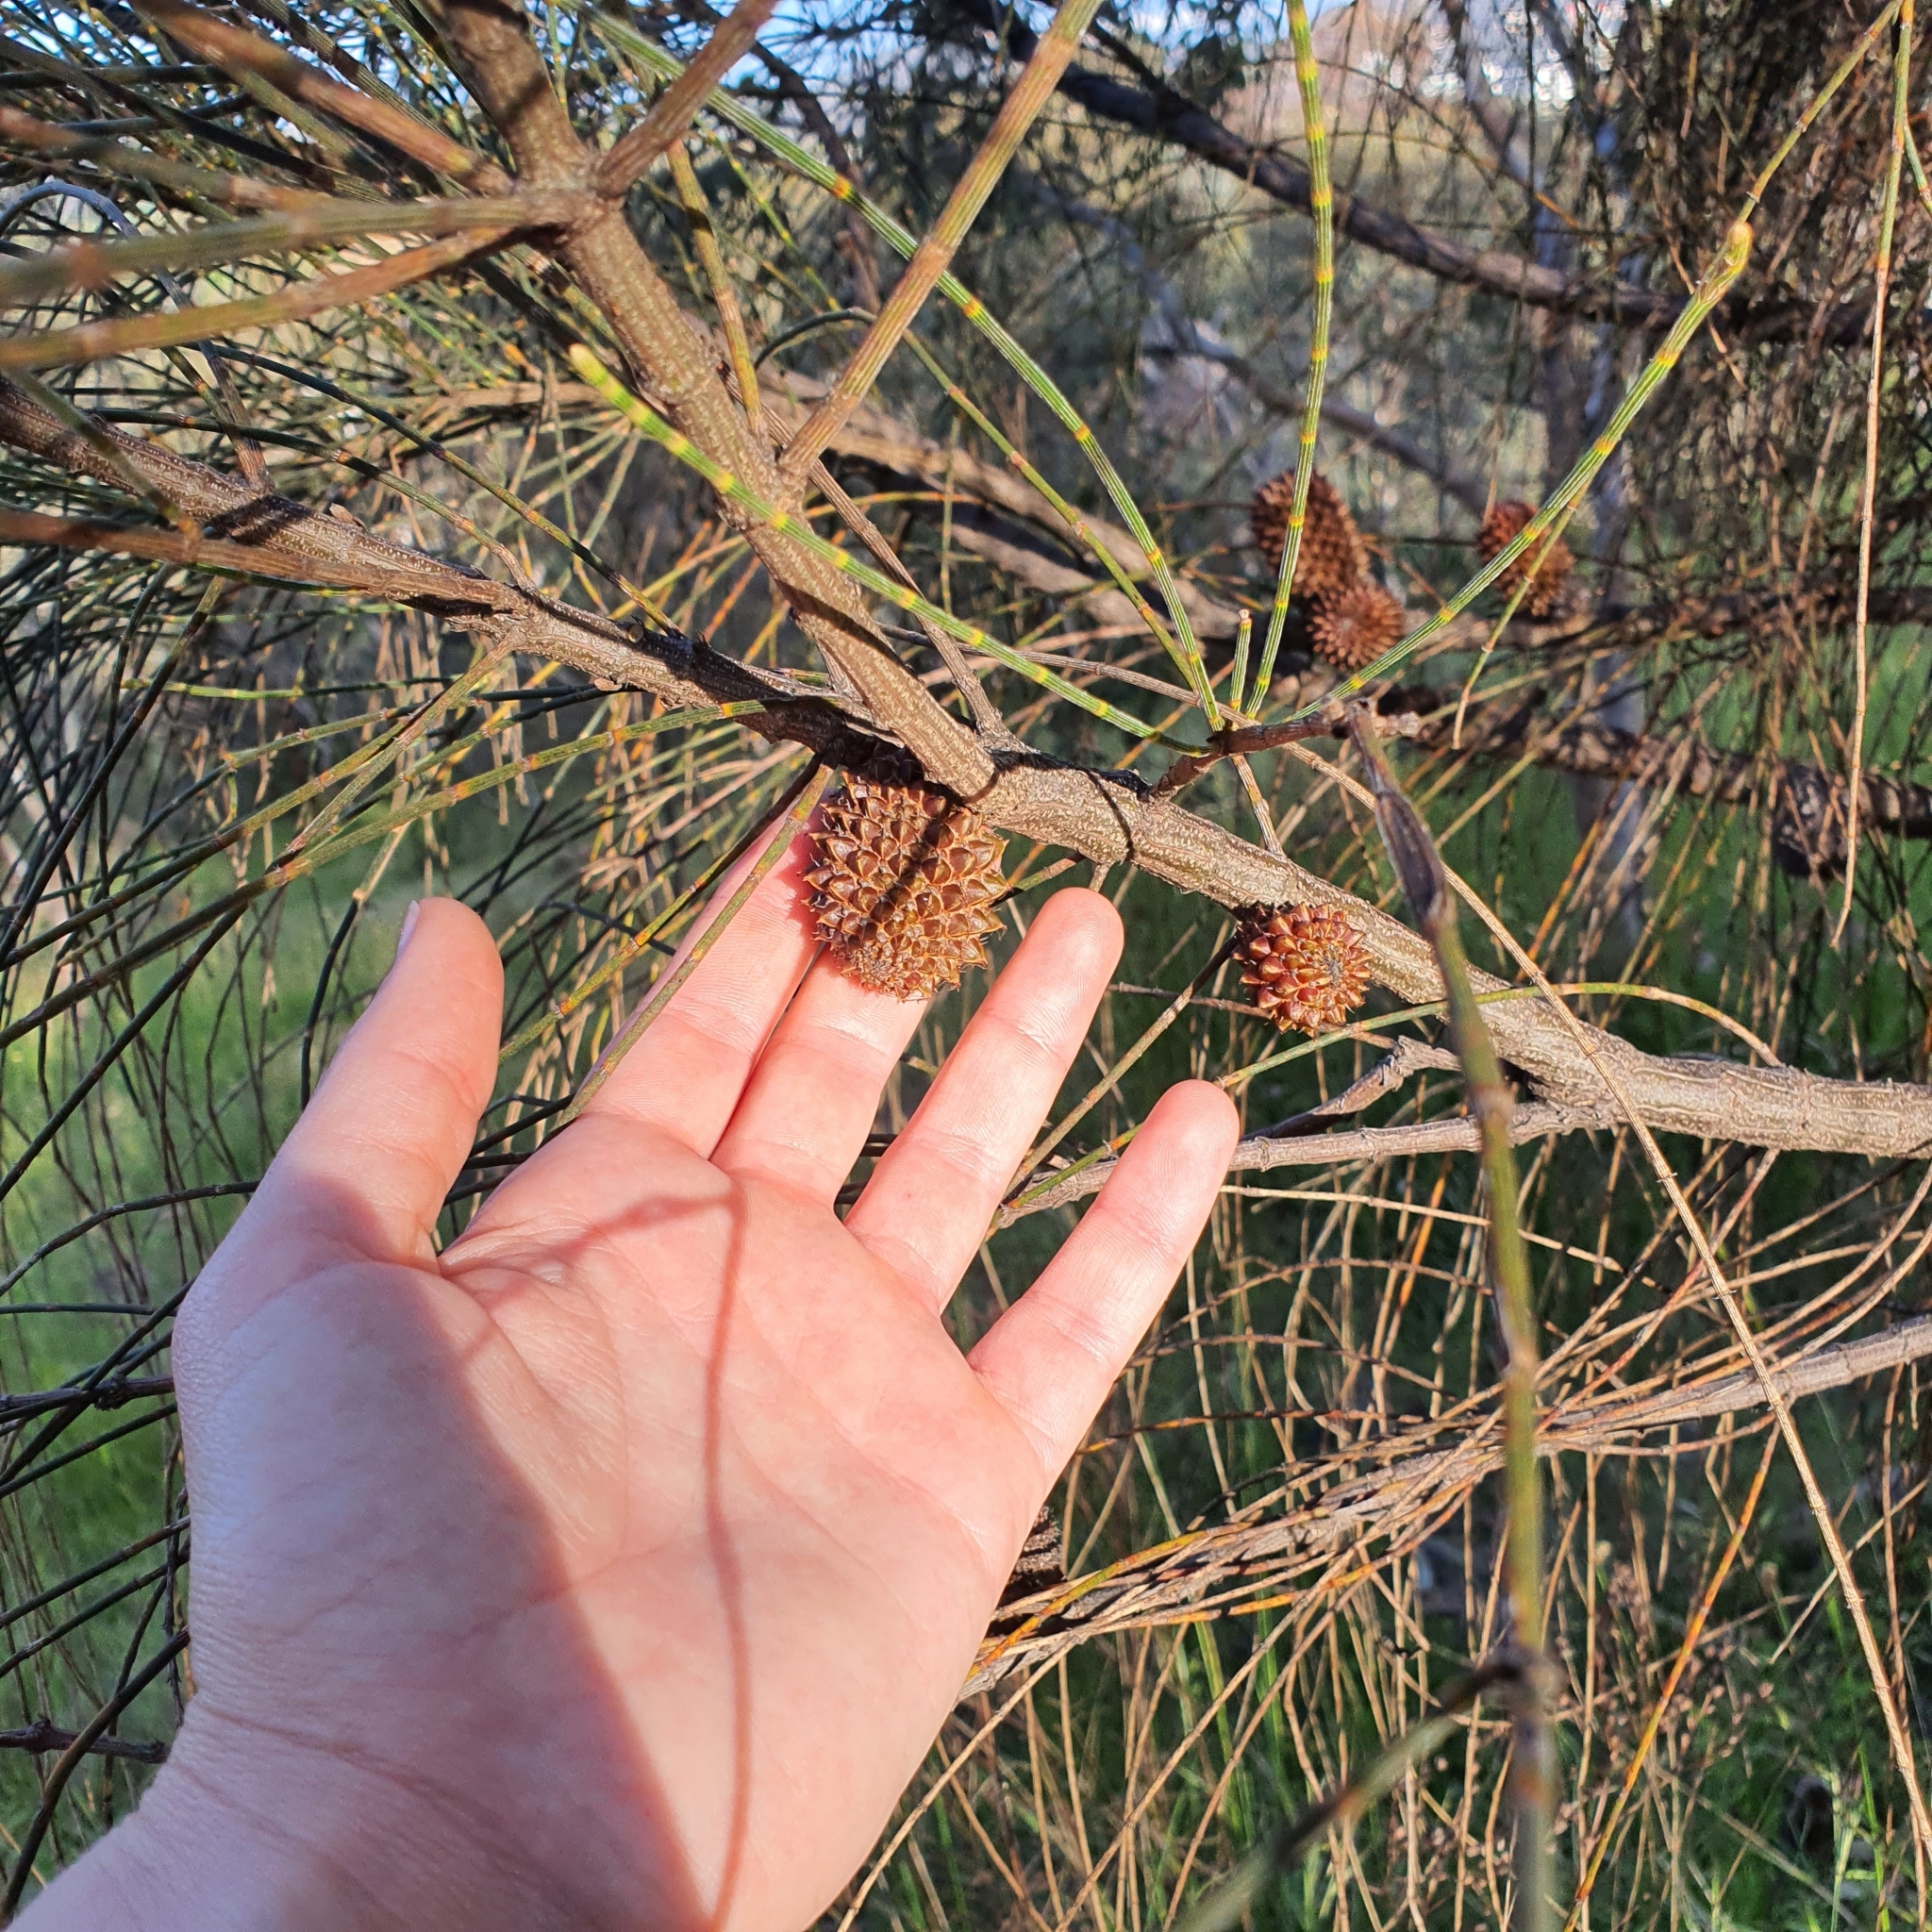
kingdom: Plantae
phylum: Tracheophyta
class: Magnoliopsida
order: Fagales
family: Casuarinaceae
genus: Allocasuarina
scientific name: Allocasuarina verticillata
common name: Drooping she-oak
